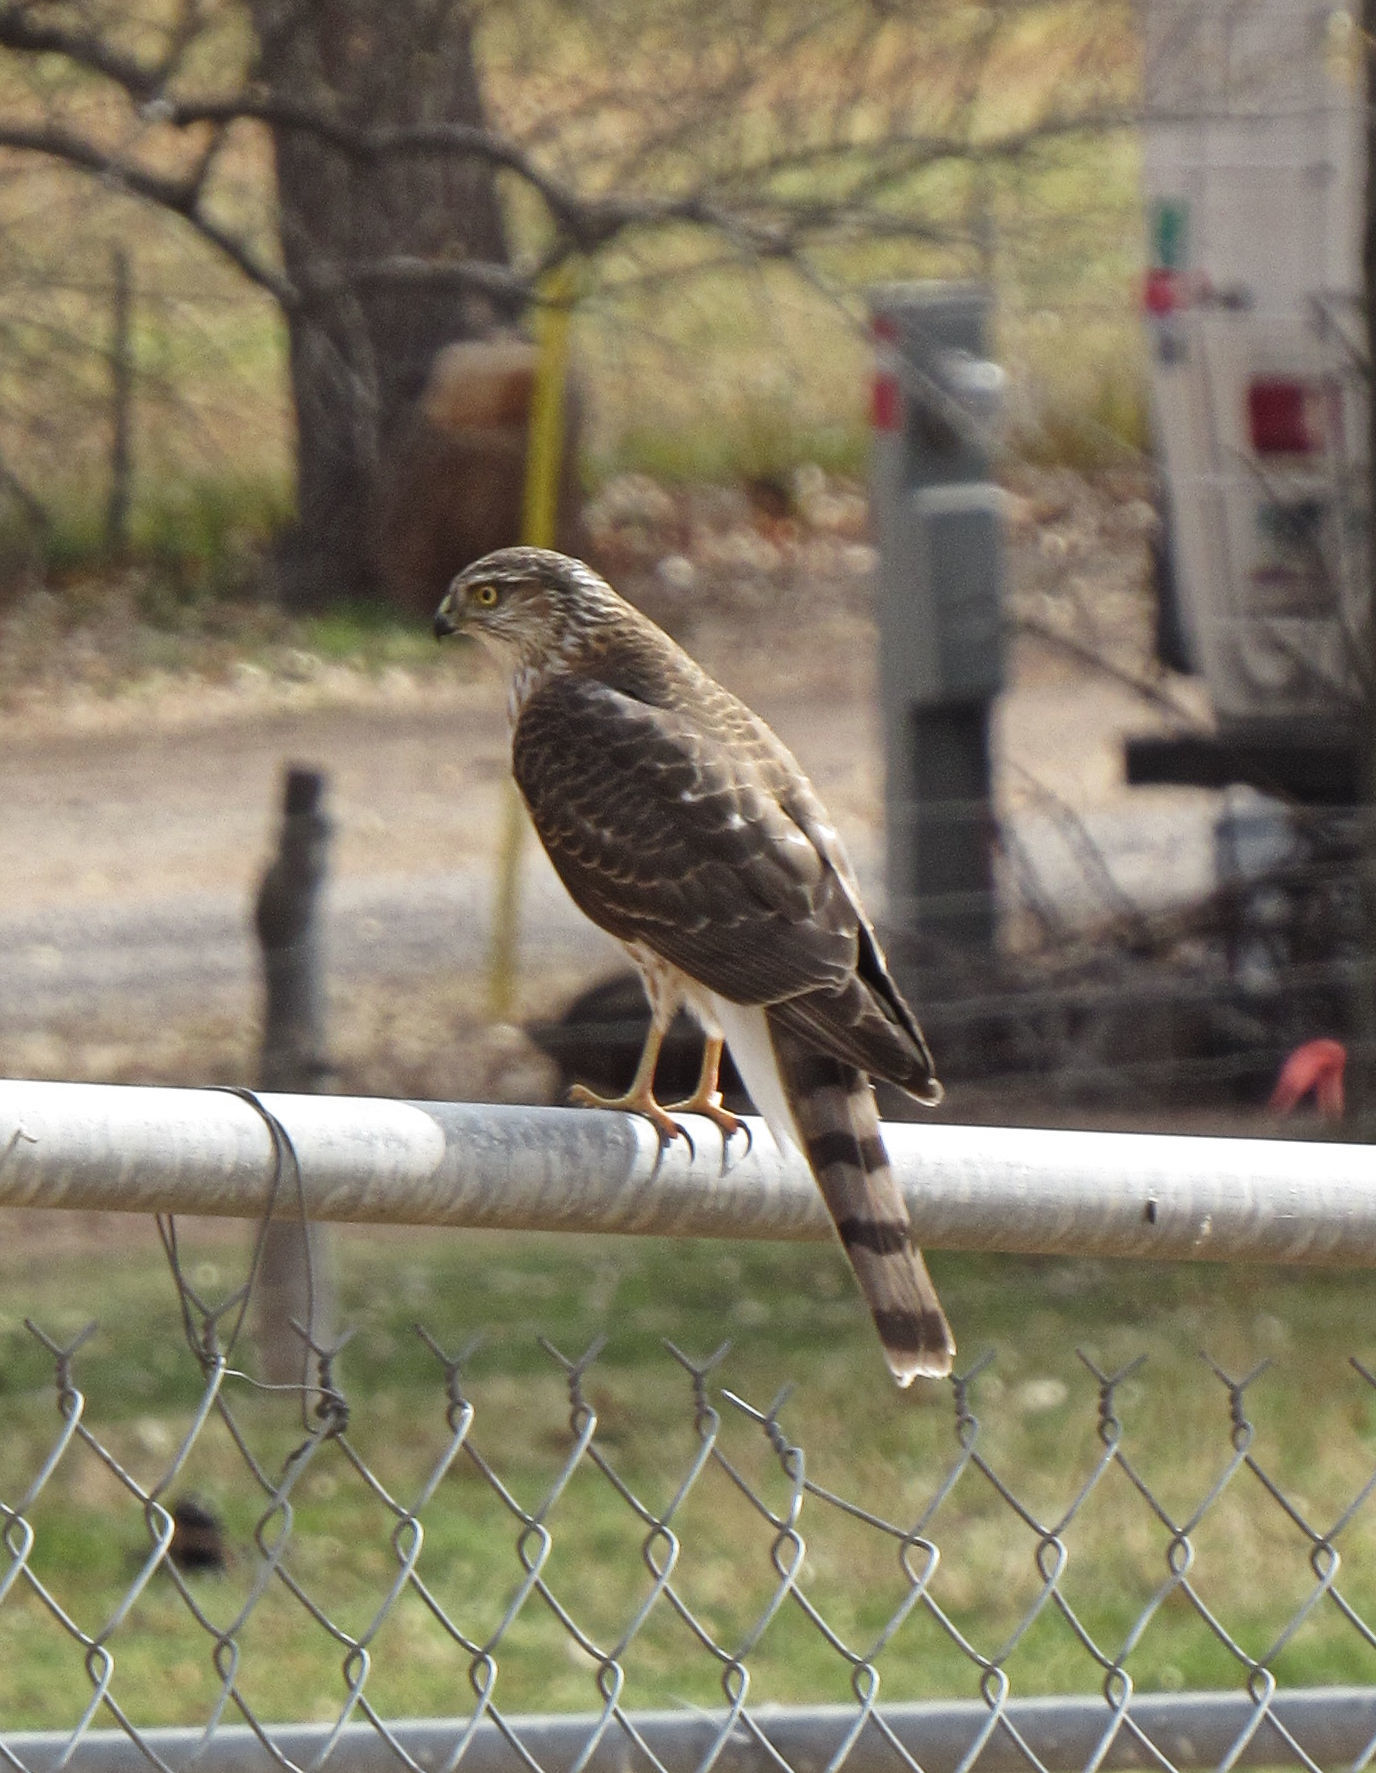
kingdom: Animalia
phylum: Chordata
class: Aves
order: Accipitriformes
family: Accipitridae
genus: Accipiter
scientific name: Accipiter striatus
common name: Sharp-shinned hawk
